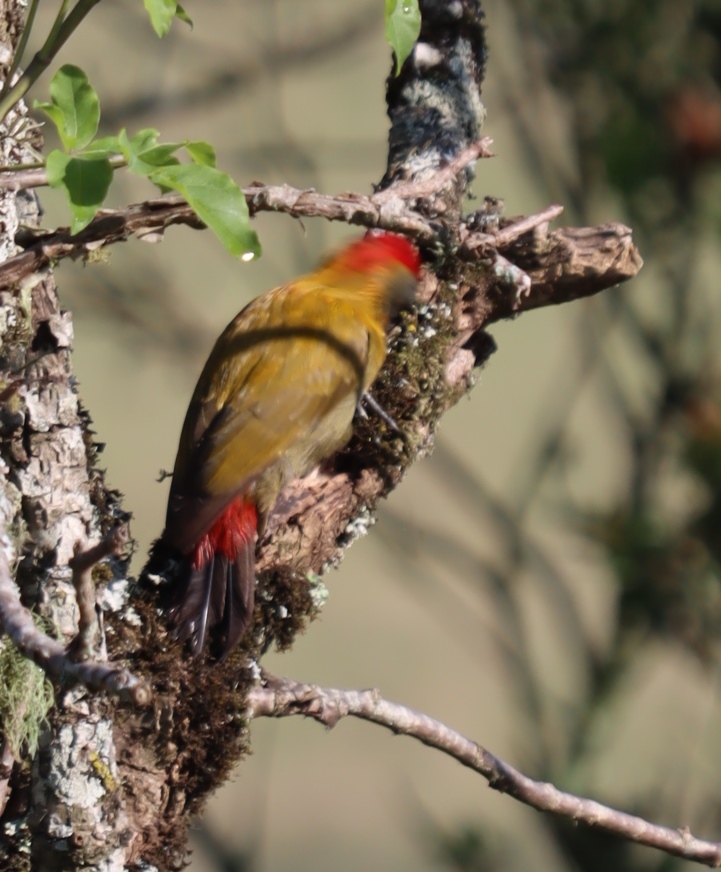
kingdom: Animalia
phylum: Chordata
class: Aves
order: Piciformes
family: Picidae
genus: Dendropicos
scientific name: Dendropicos griseocephalus
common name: Olive woodpecker
